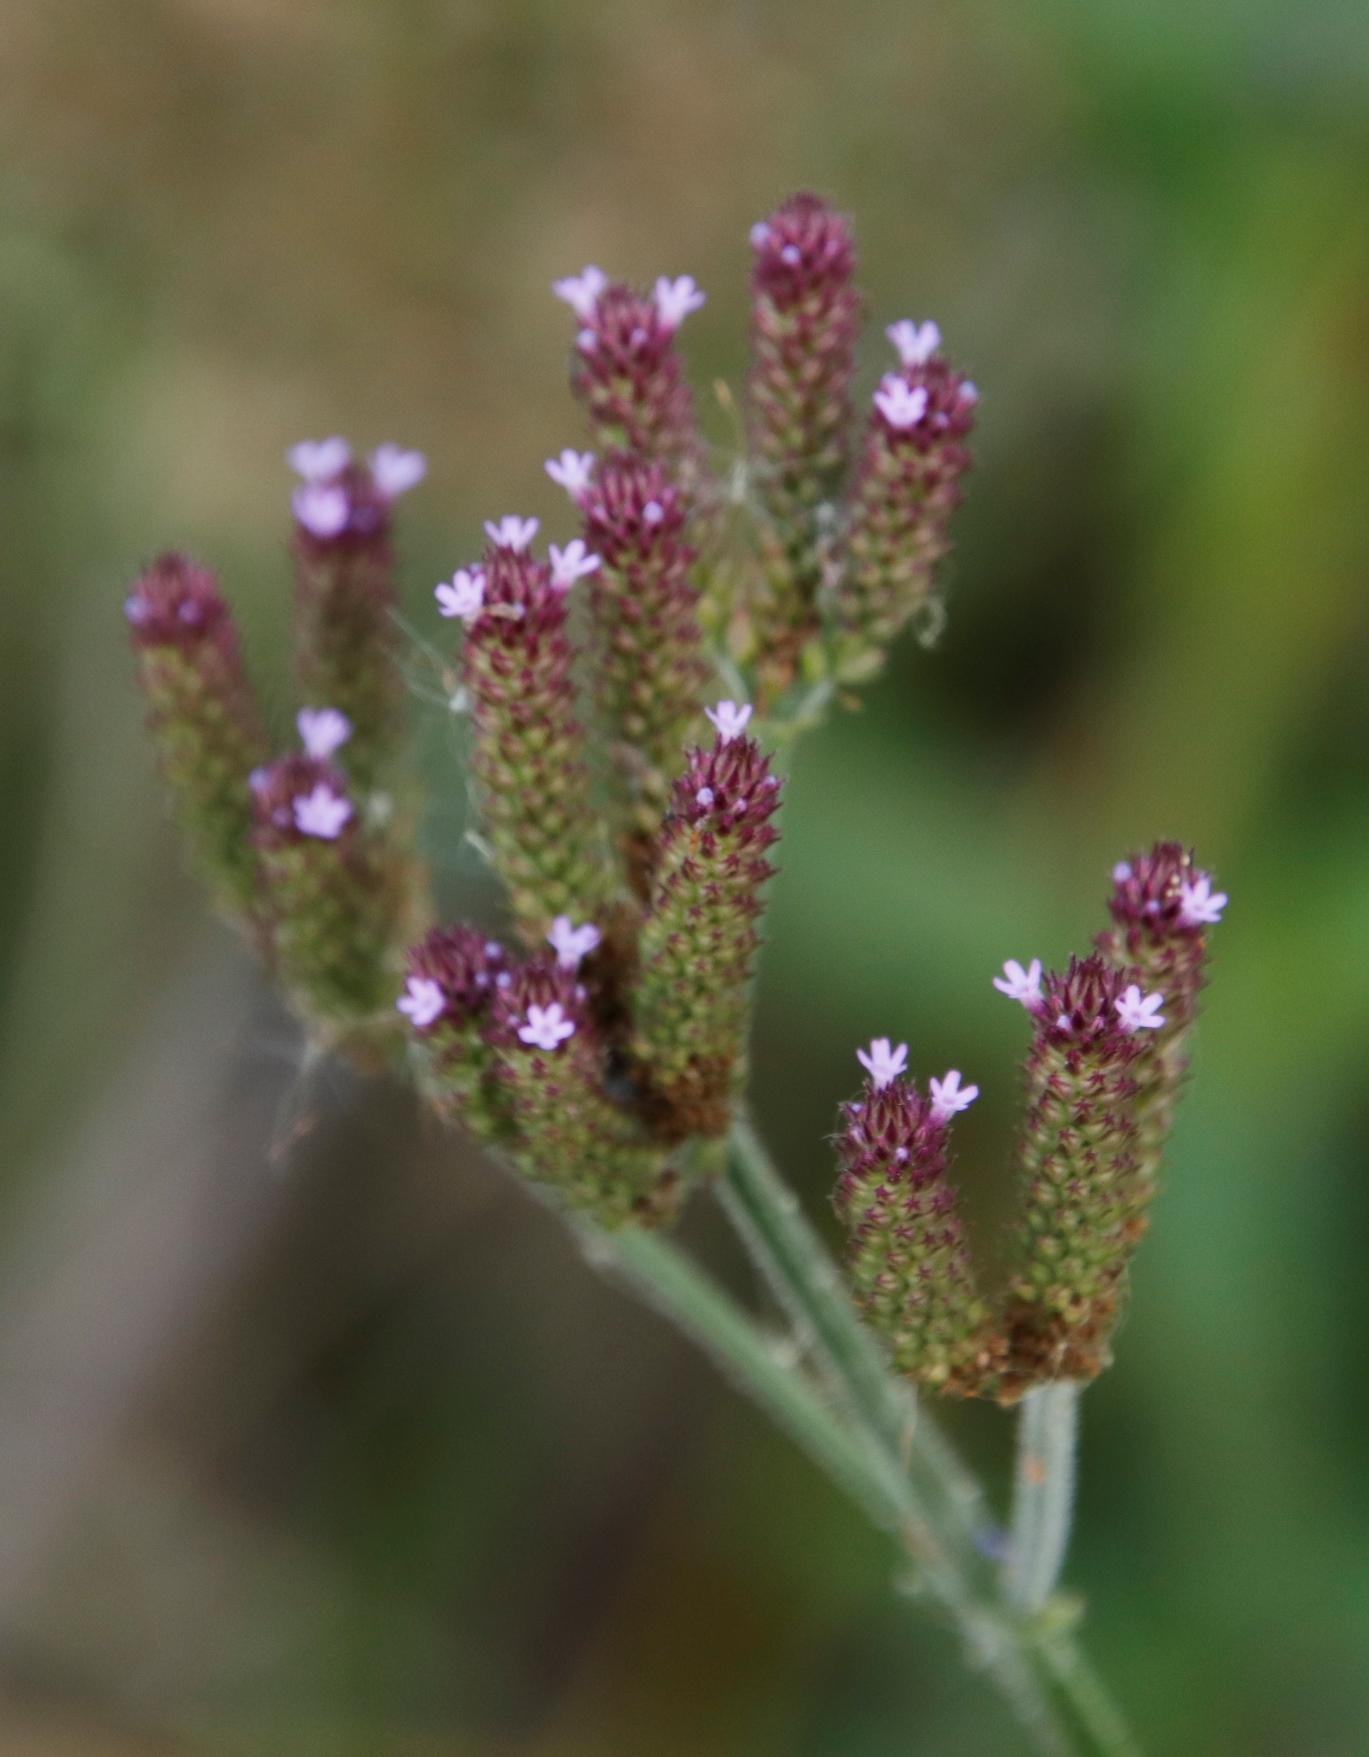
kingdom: Plantae
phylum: Tracheophyta
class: Magnoliopsida
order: Lamiales
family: Verbenaceae
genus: Verbena
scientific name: Verbena bonariensis
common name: Purpletop vervain
